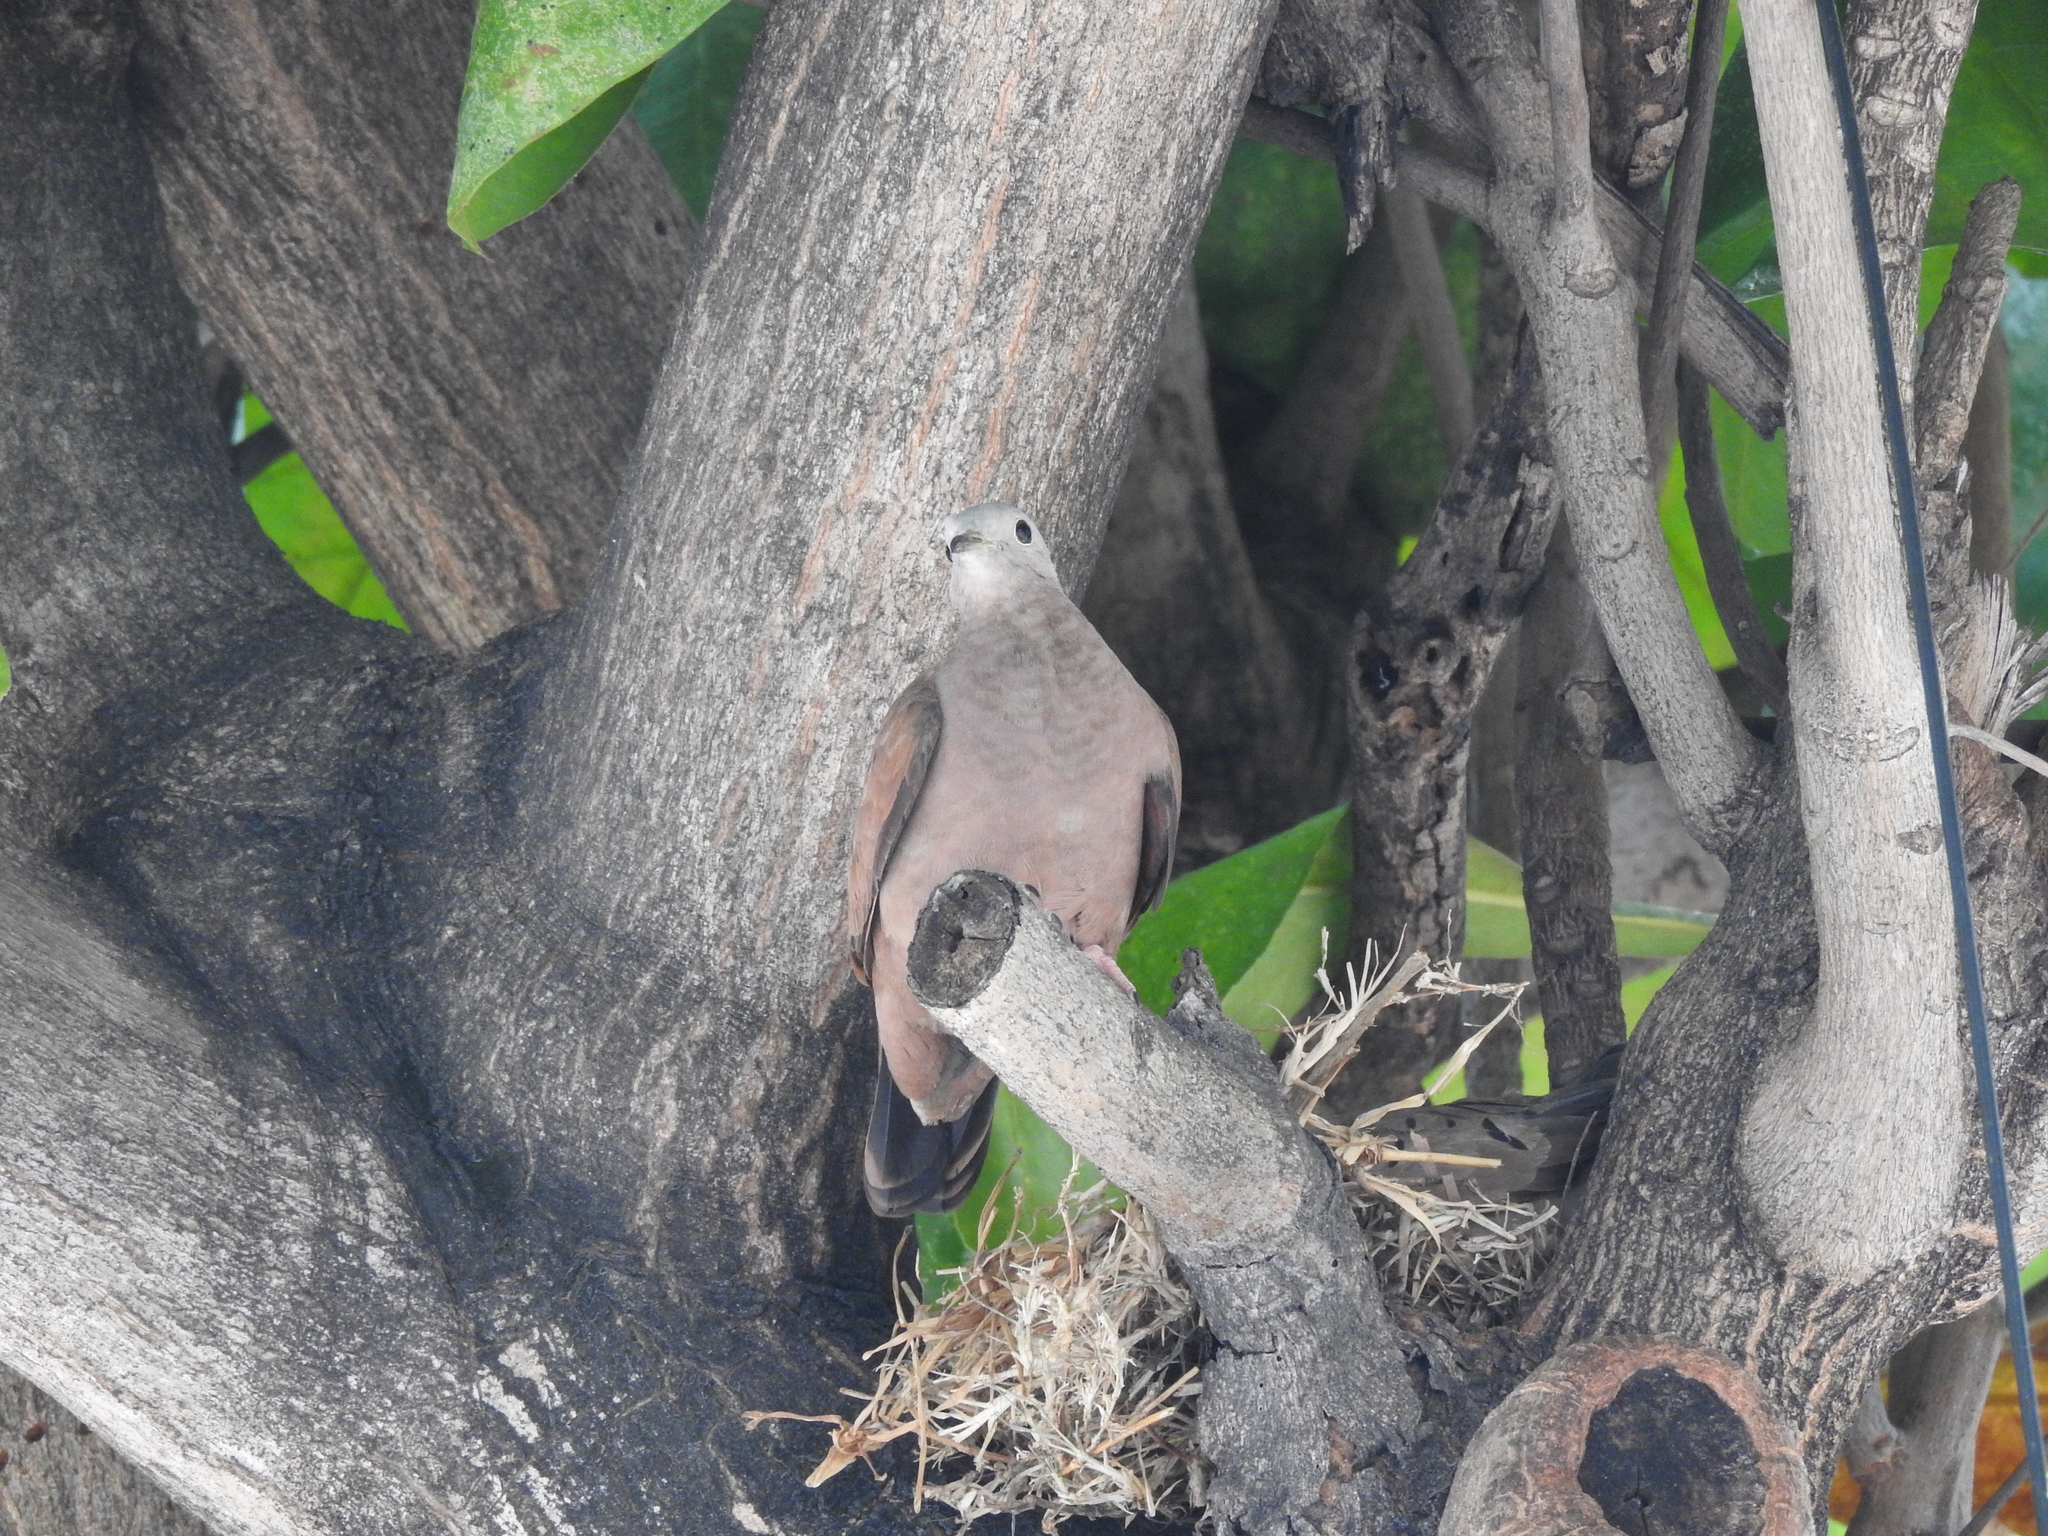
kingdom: Animalia
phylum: Chordata
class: Aves
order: Columbiformes
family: Columbidae
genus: Columbina
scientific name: Columbina talpacoti
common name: Ruddy ground dove
